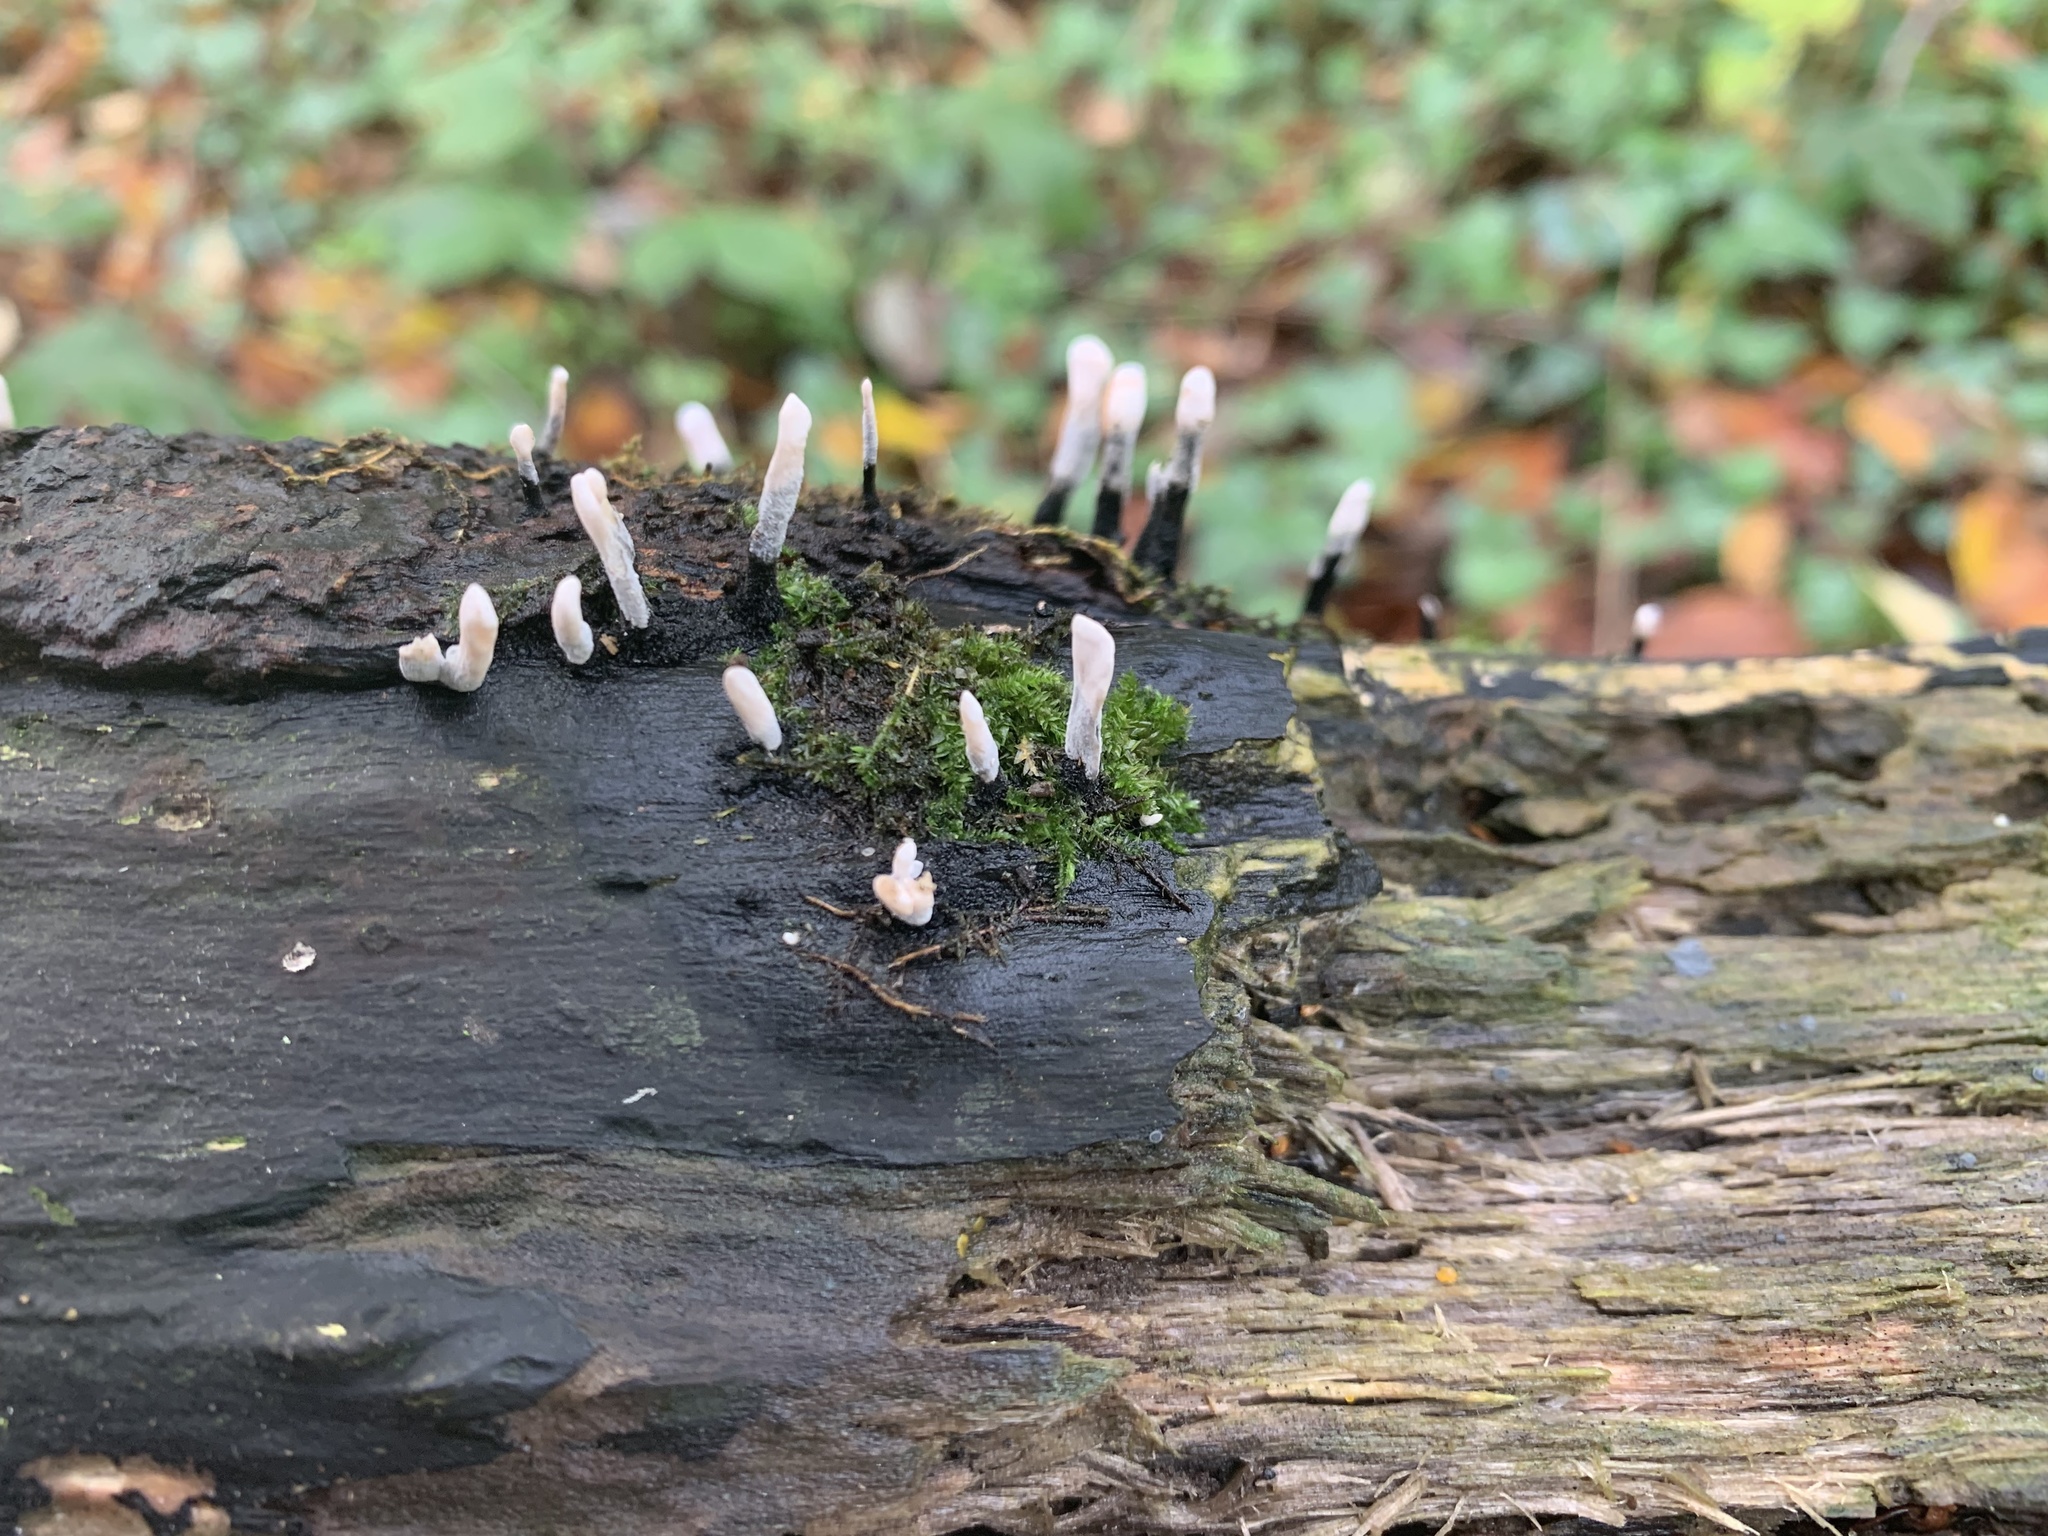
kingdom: Fungi
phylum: Ascomycota
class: Sordariomycetes
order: Xylariales
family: Xylariaceae
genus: Xylaria
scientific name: Xylaria hypoxylon
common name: Candle-snuff fungus
